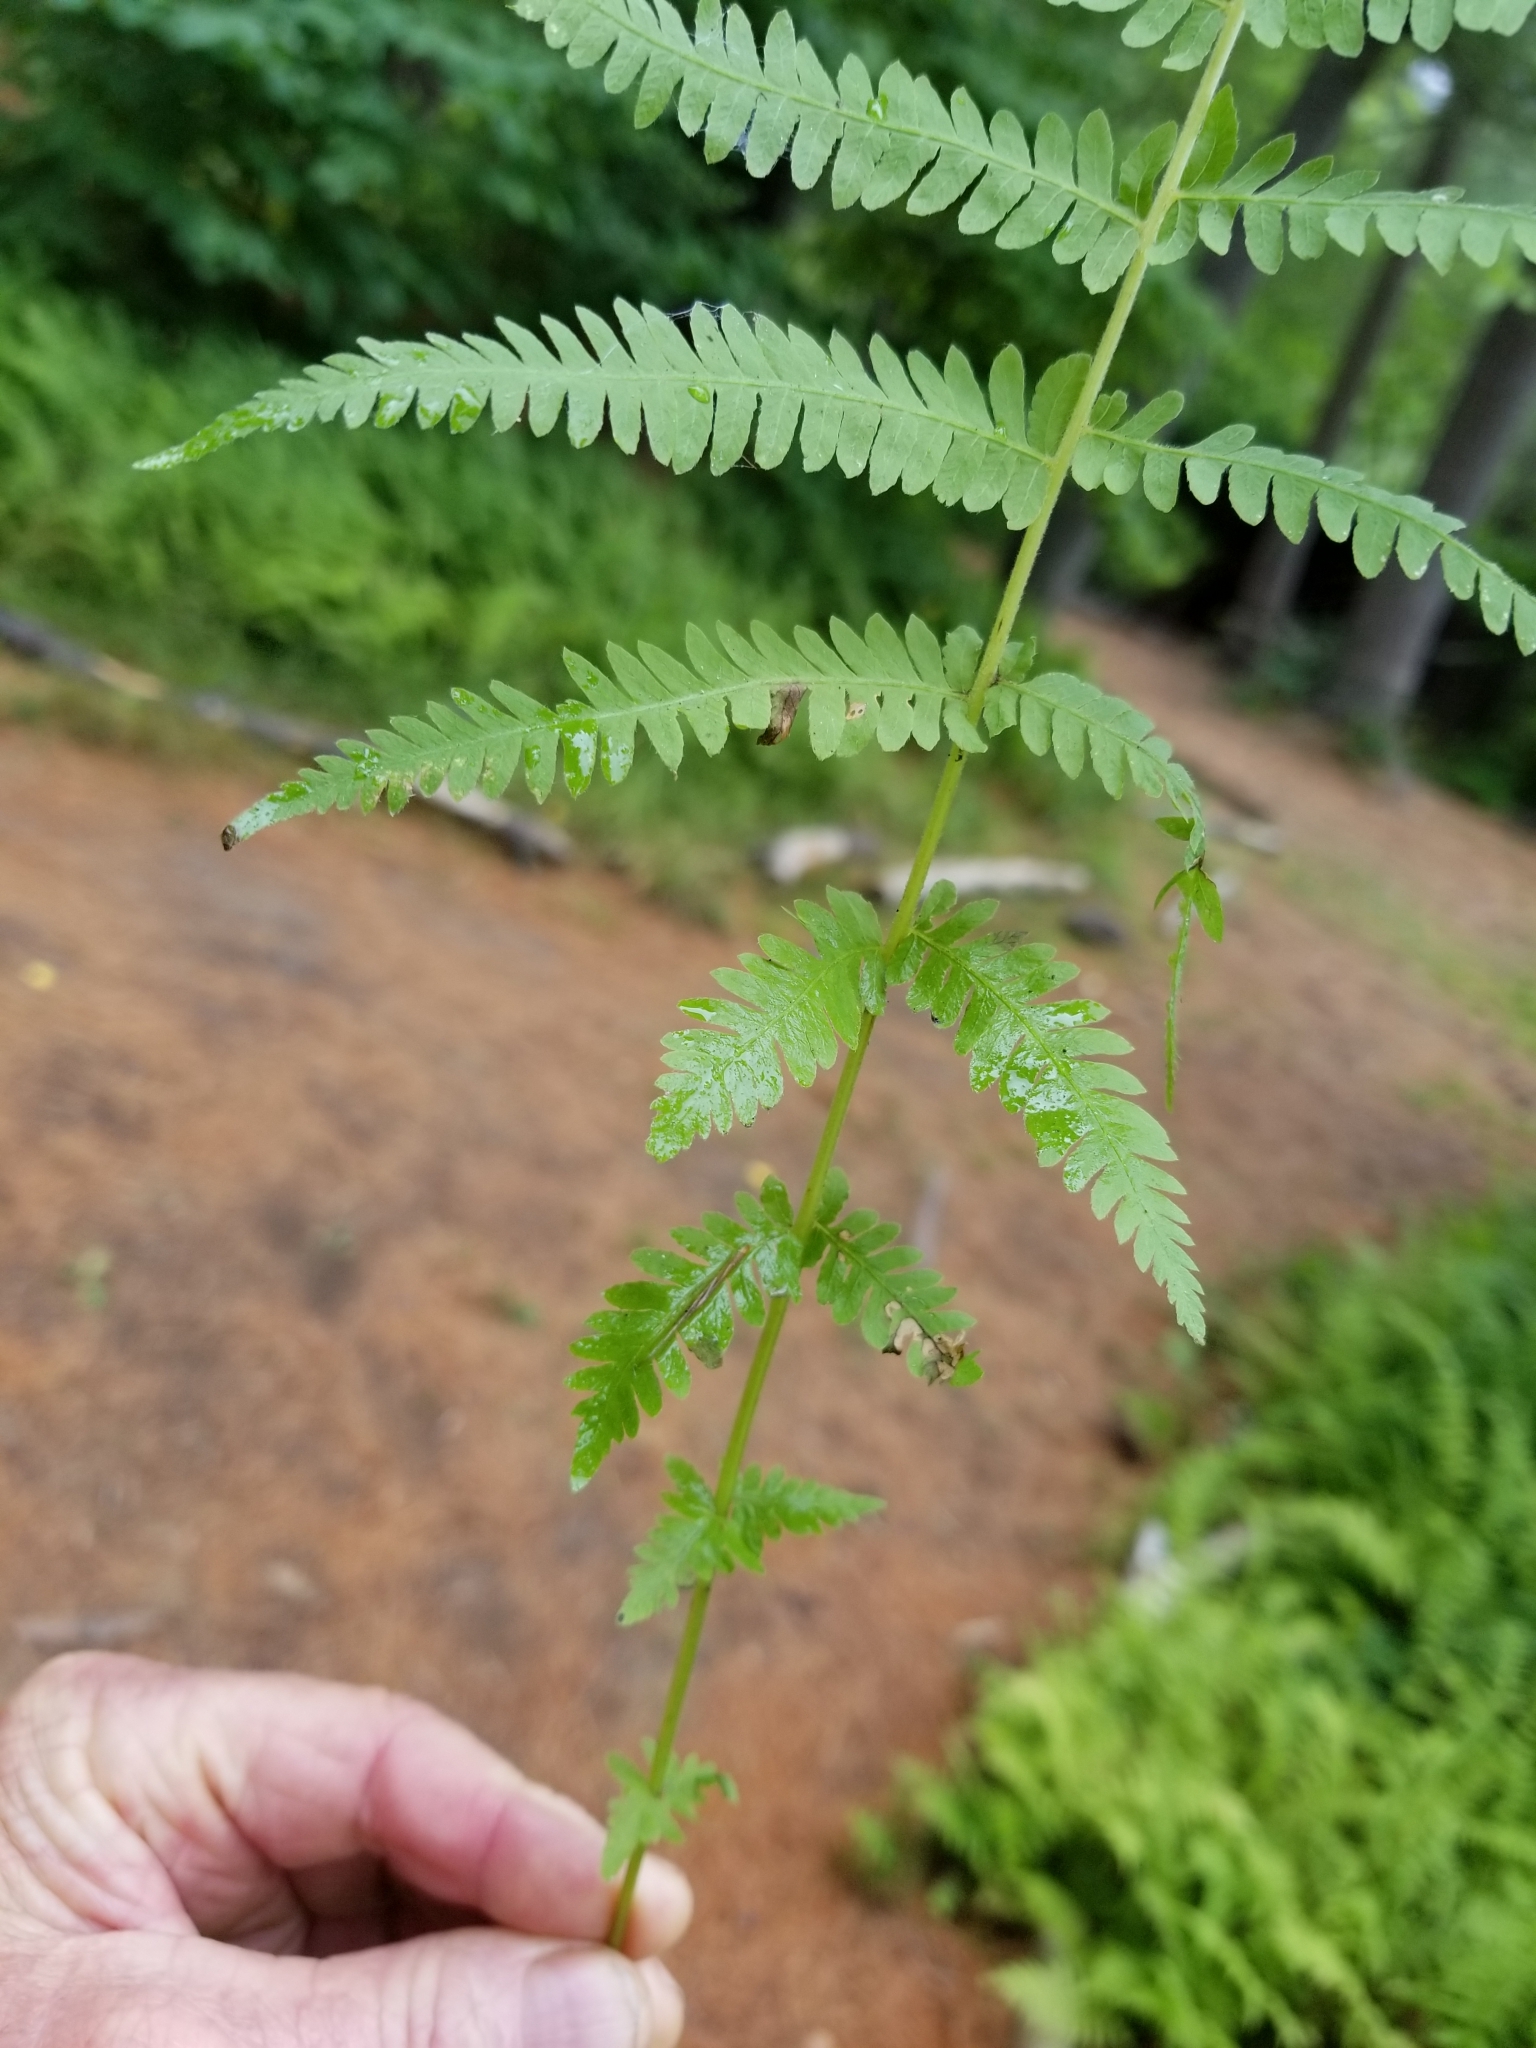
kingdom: Plantae
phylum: Tracheophyta
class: Polypodiopsida
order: Polypodiales
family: Thelypteridaceae
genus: Amauropelta
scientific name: Amauropelta noveboracensis
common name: New york fern
